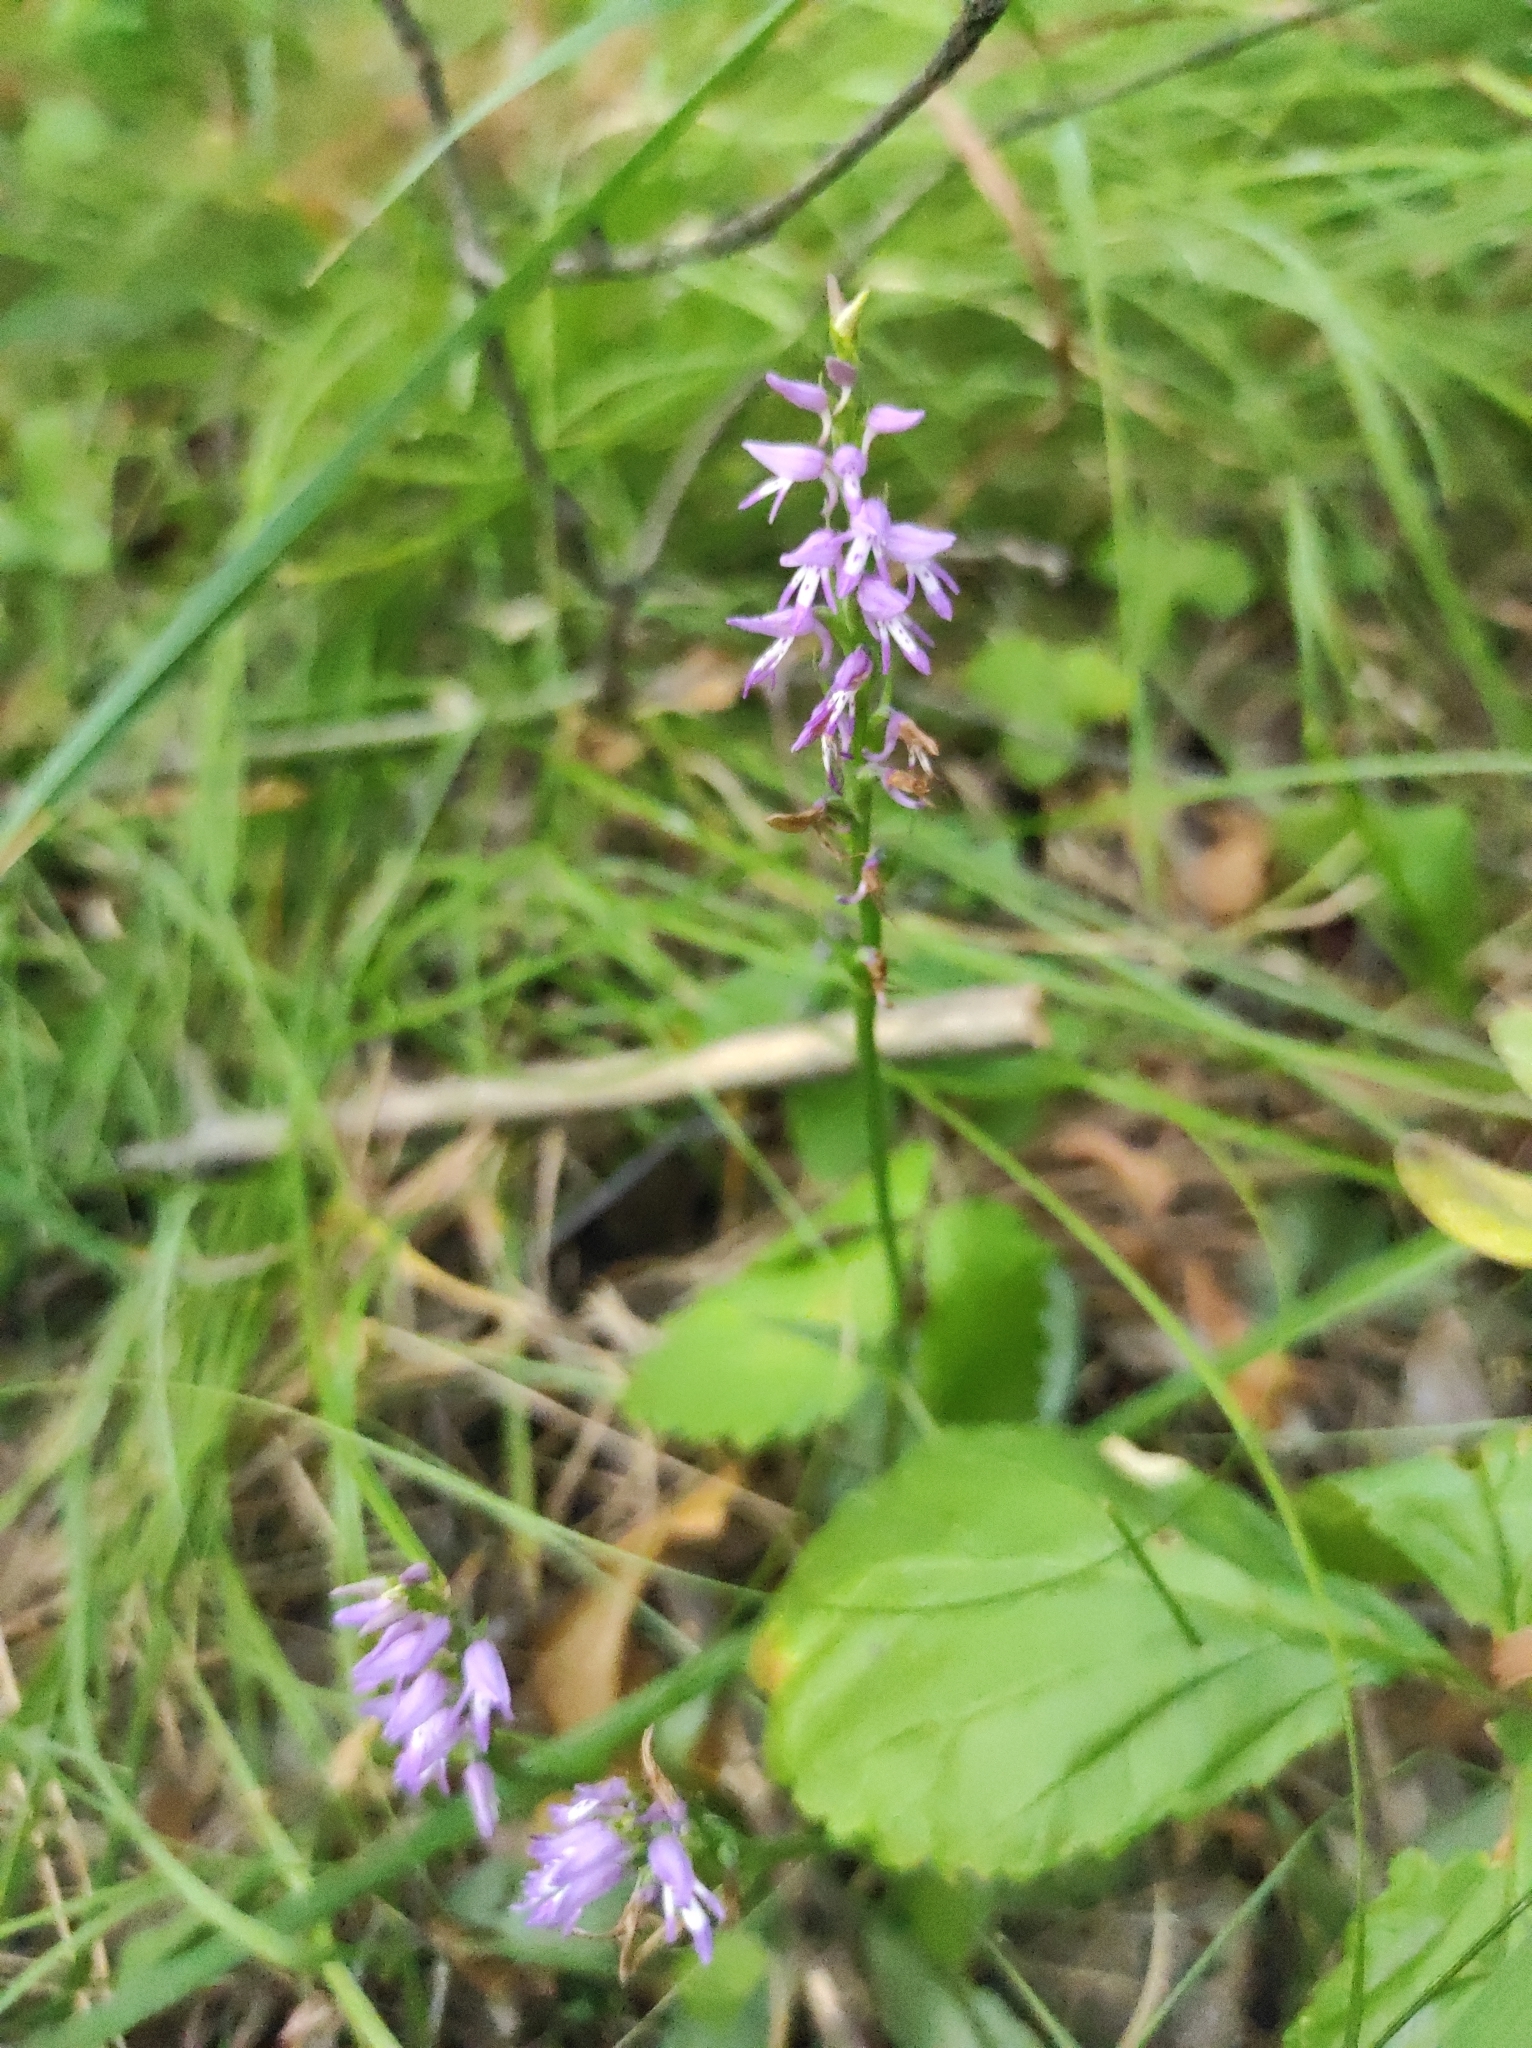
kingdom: Plantae
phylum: Tracheophyta
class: Liliopsida
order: Asparagales
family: Orchidaceae
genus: Hemipilia
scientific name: Hemipilia cucullata
